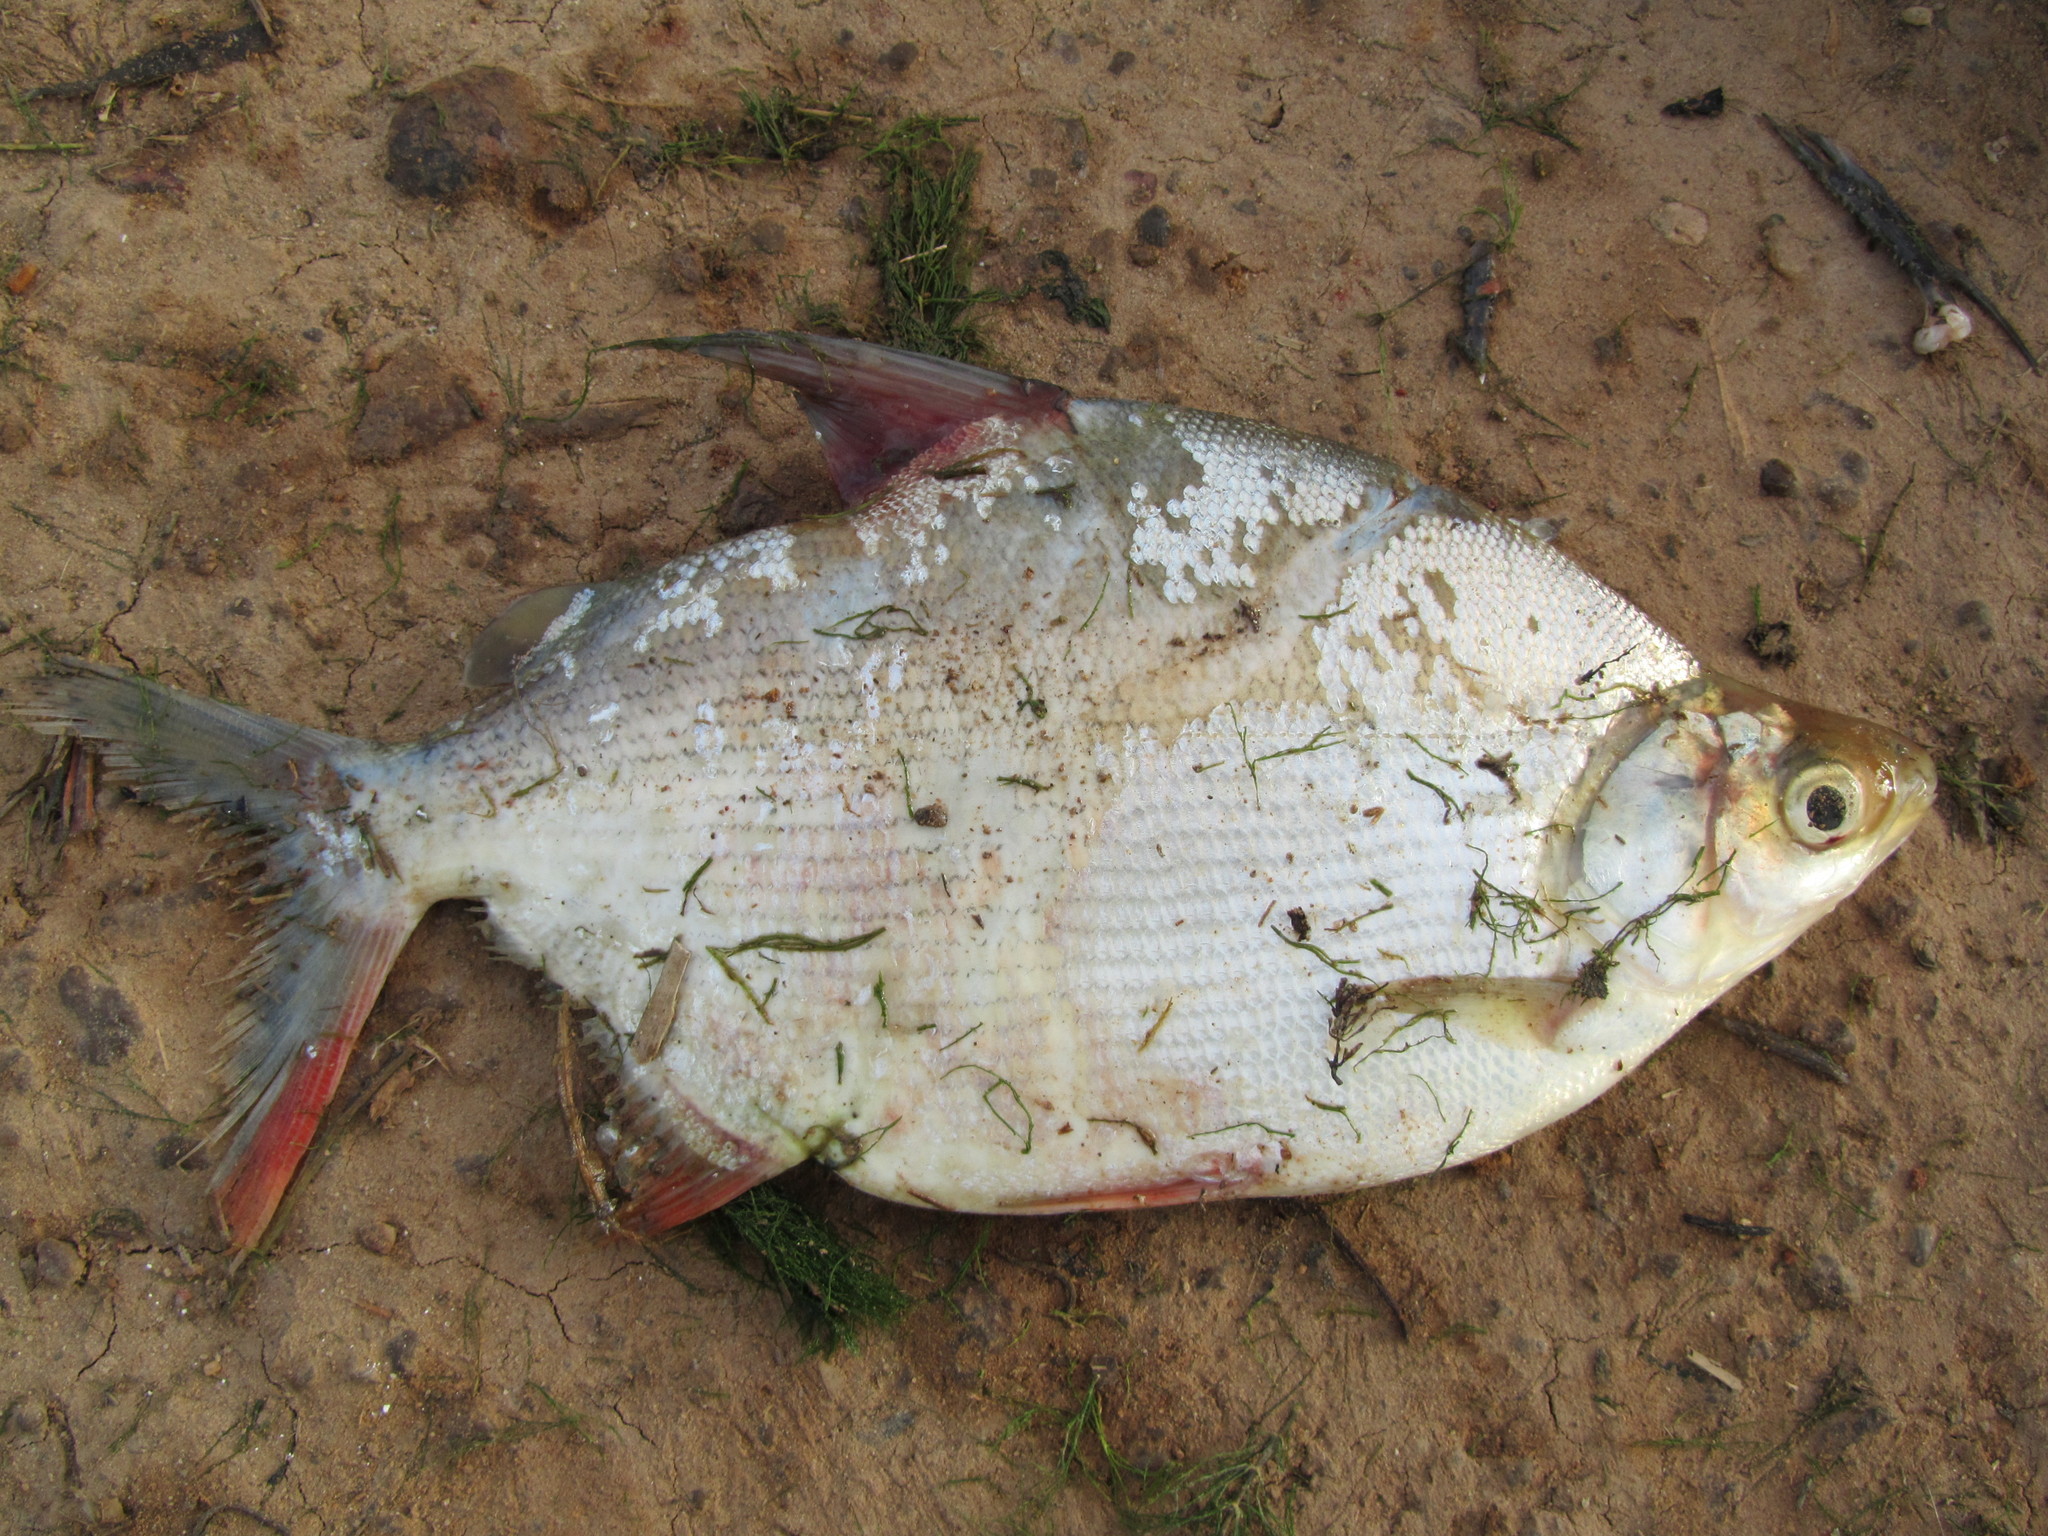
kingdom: Animalia
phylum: Chordata
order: Characiformes
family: Citharinidae
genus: Citharinus
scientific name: Citharinus citharus
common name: Moon fish
